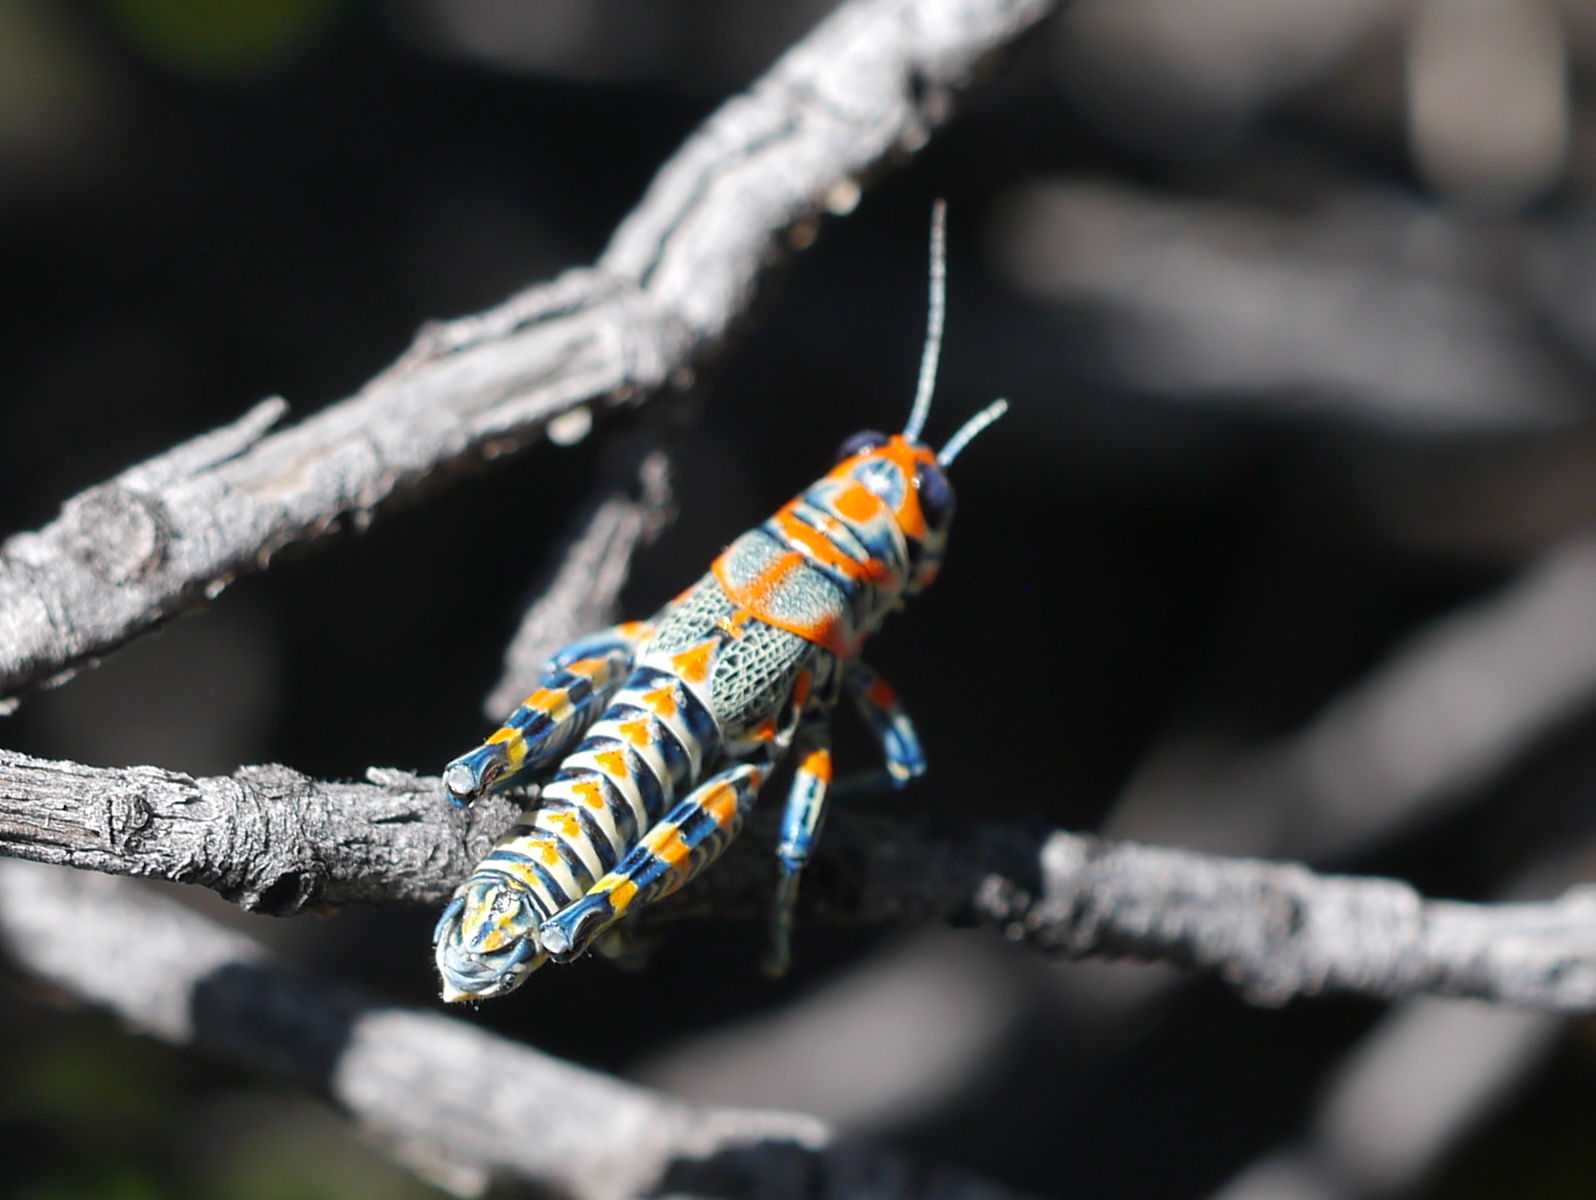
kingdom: Animalia
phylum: Arthropoda
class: Insecta
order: Orthoptera
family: Acrididae
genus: Dactylotum
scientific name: Dactylotum bicolor
